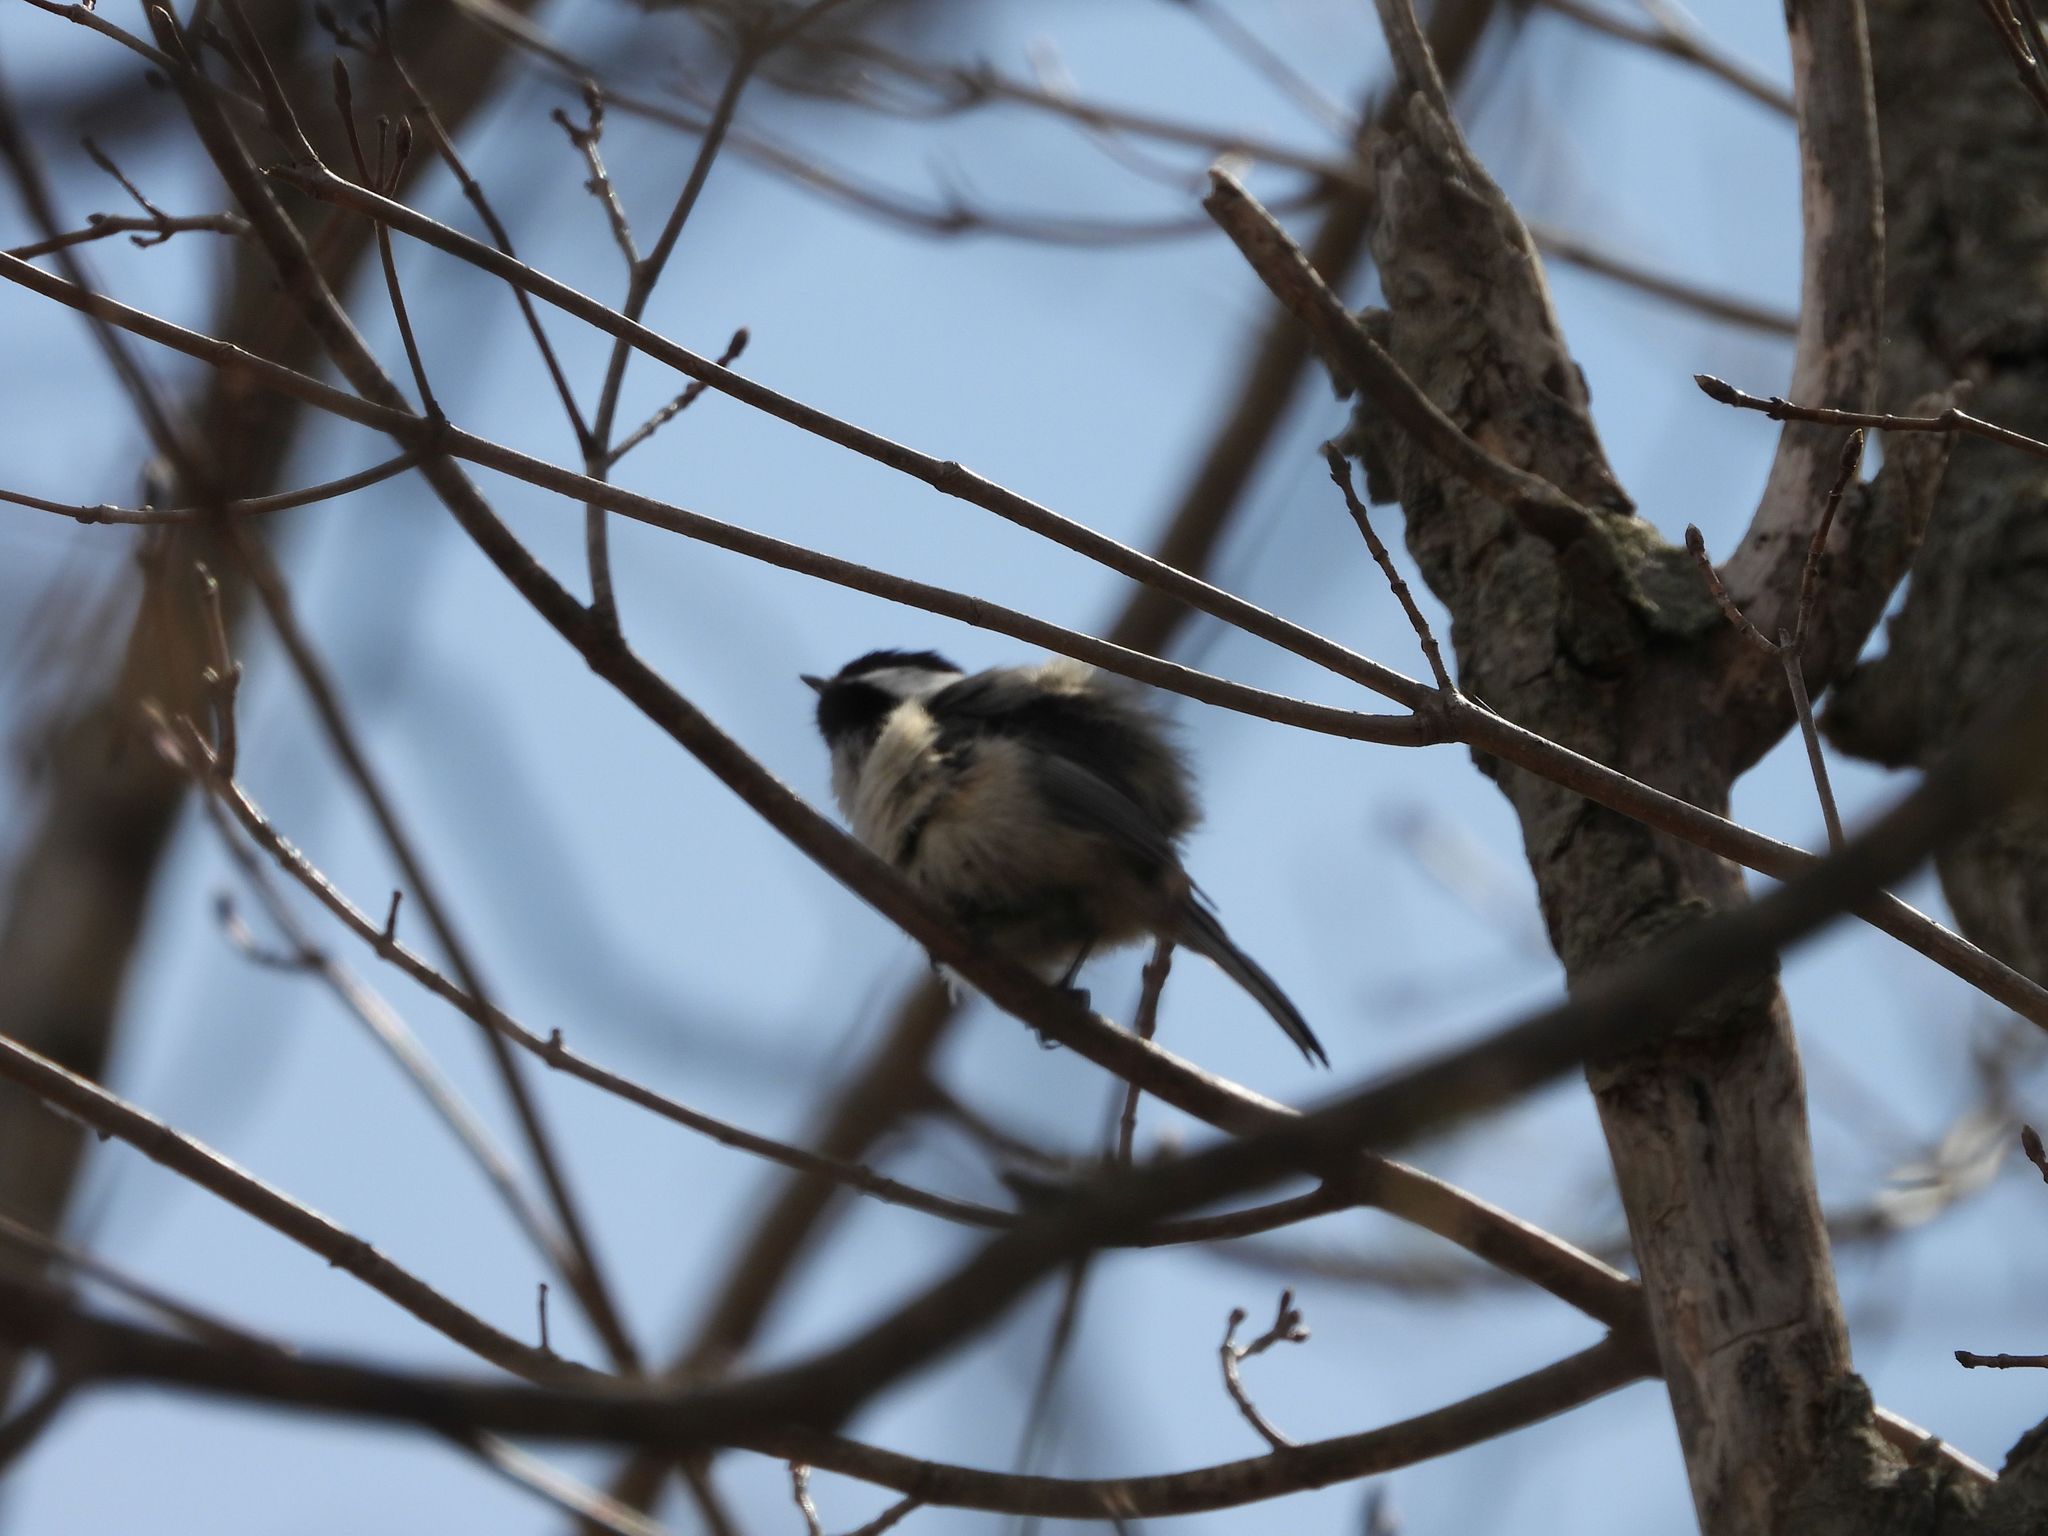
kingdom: Animalia
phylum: Chordata
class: Aves
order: Passeriformes
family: Paridae
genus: Poecile
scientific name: Poecile atricapillus
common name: Black-capped chickadee
